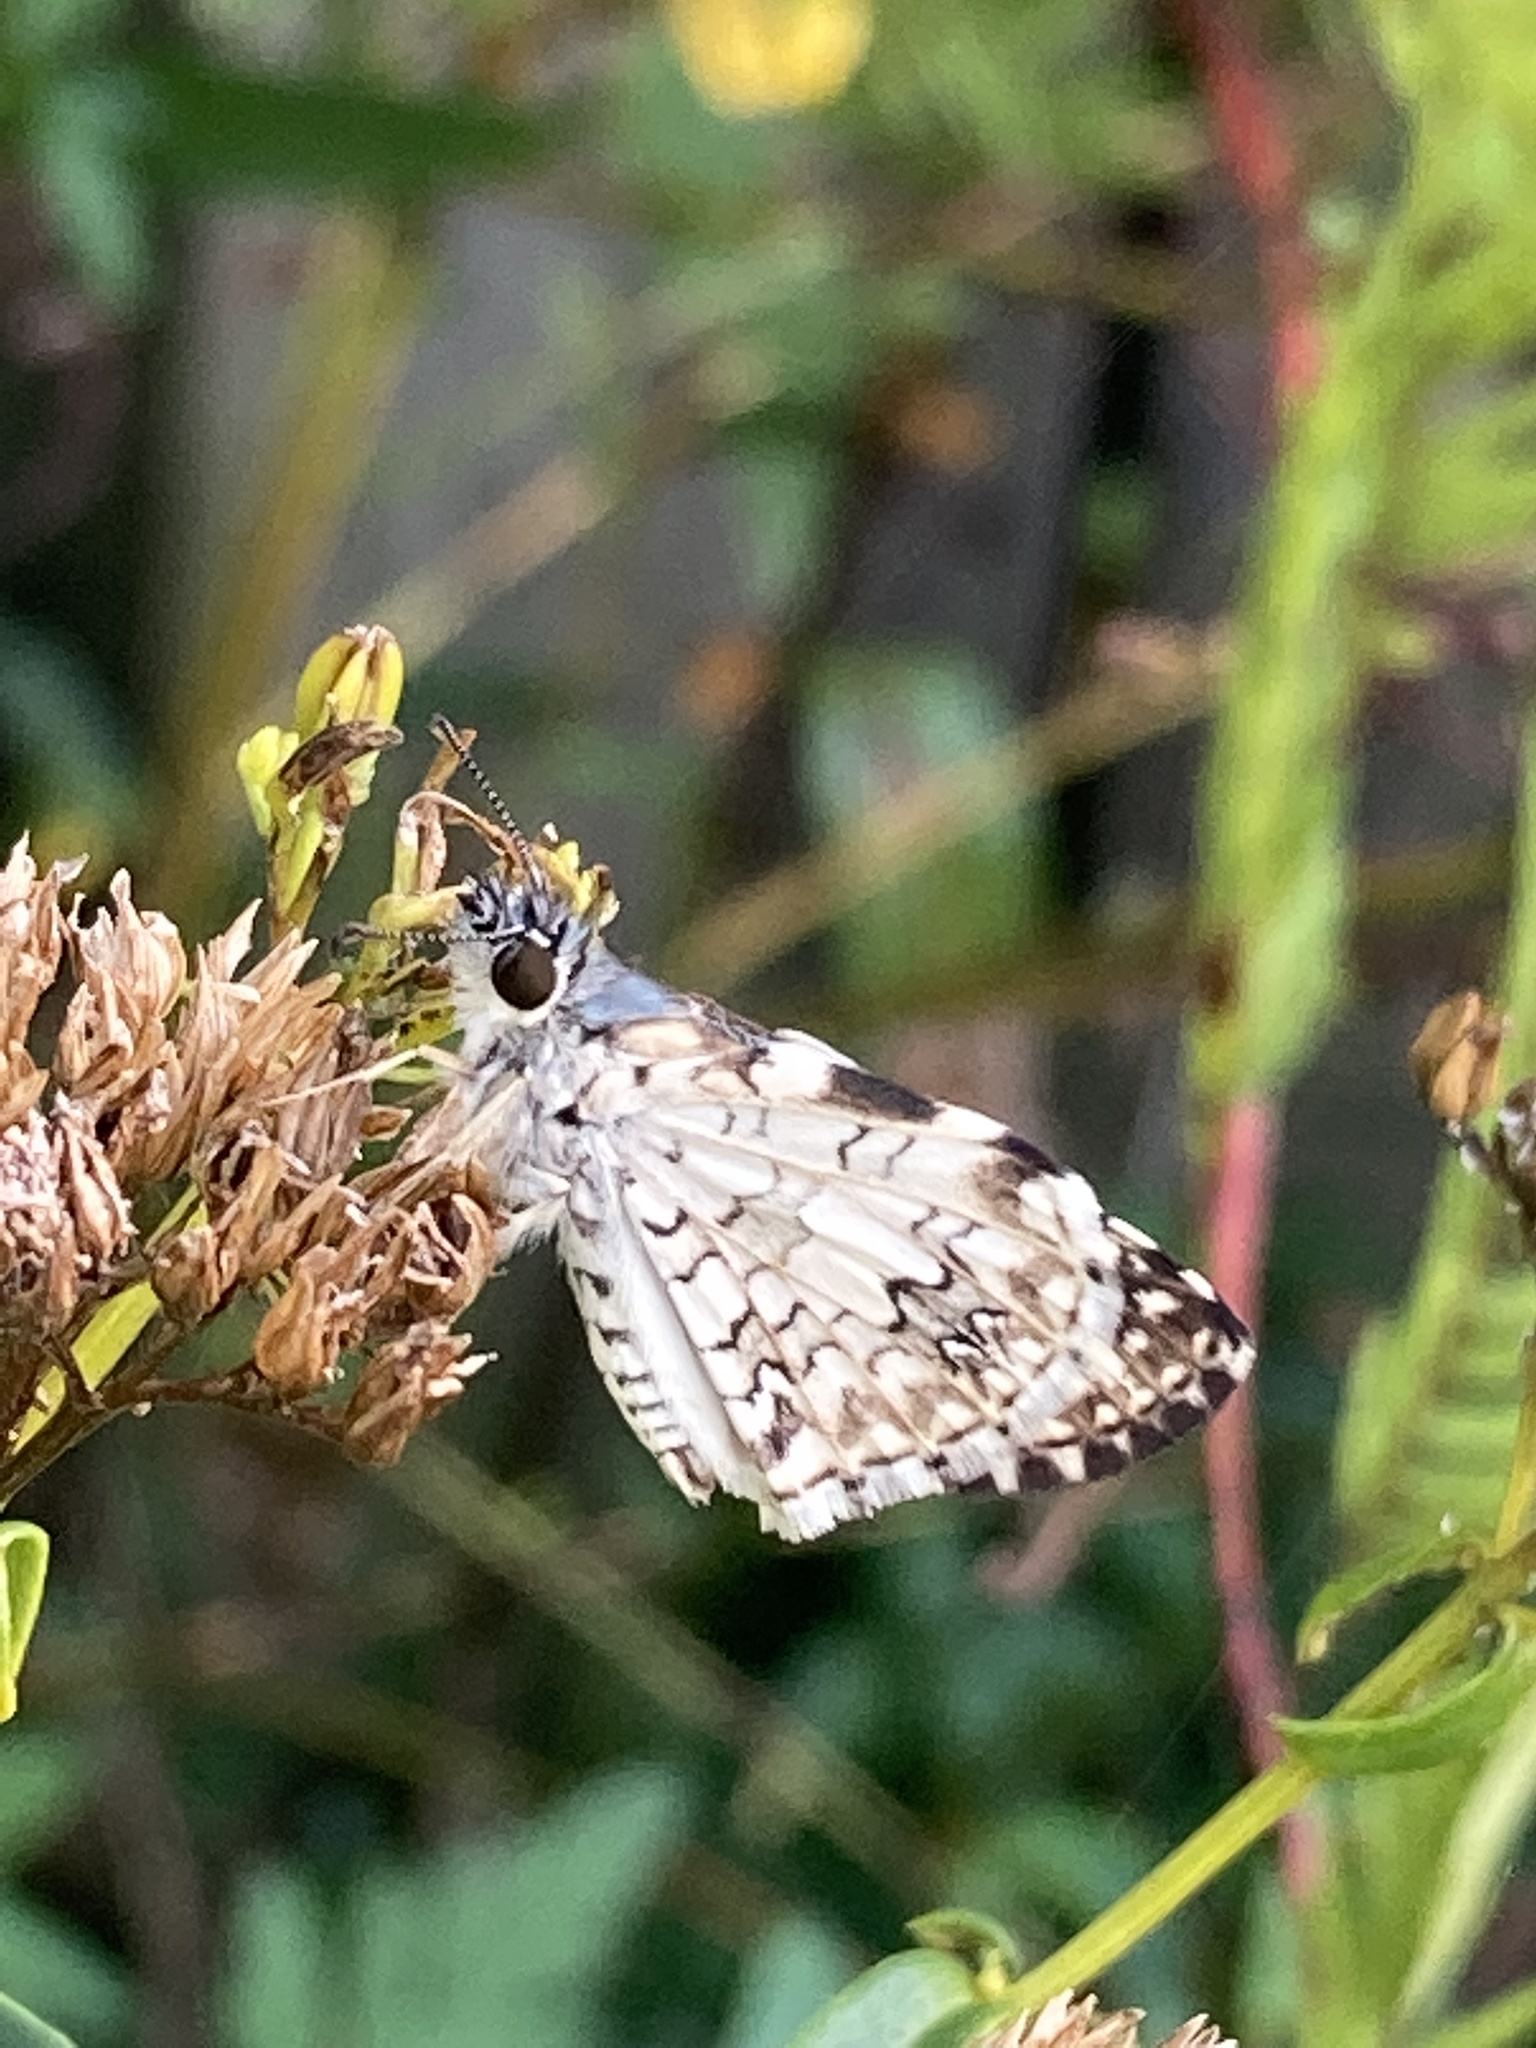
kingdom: Animalia
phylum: Arthropoda
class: Insecta
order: Lepidoptera
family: Hesperiidae
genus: Pyrgus
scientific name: Pyrgus oileus
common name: Tropical checkered-skipper
